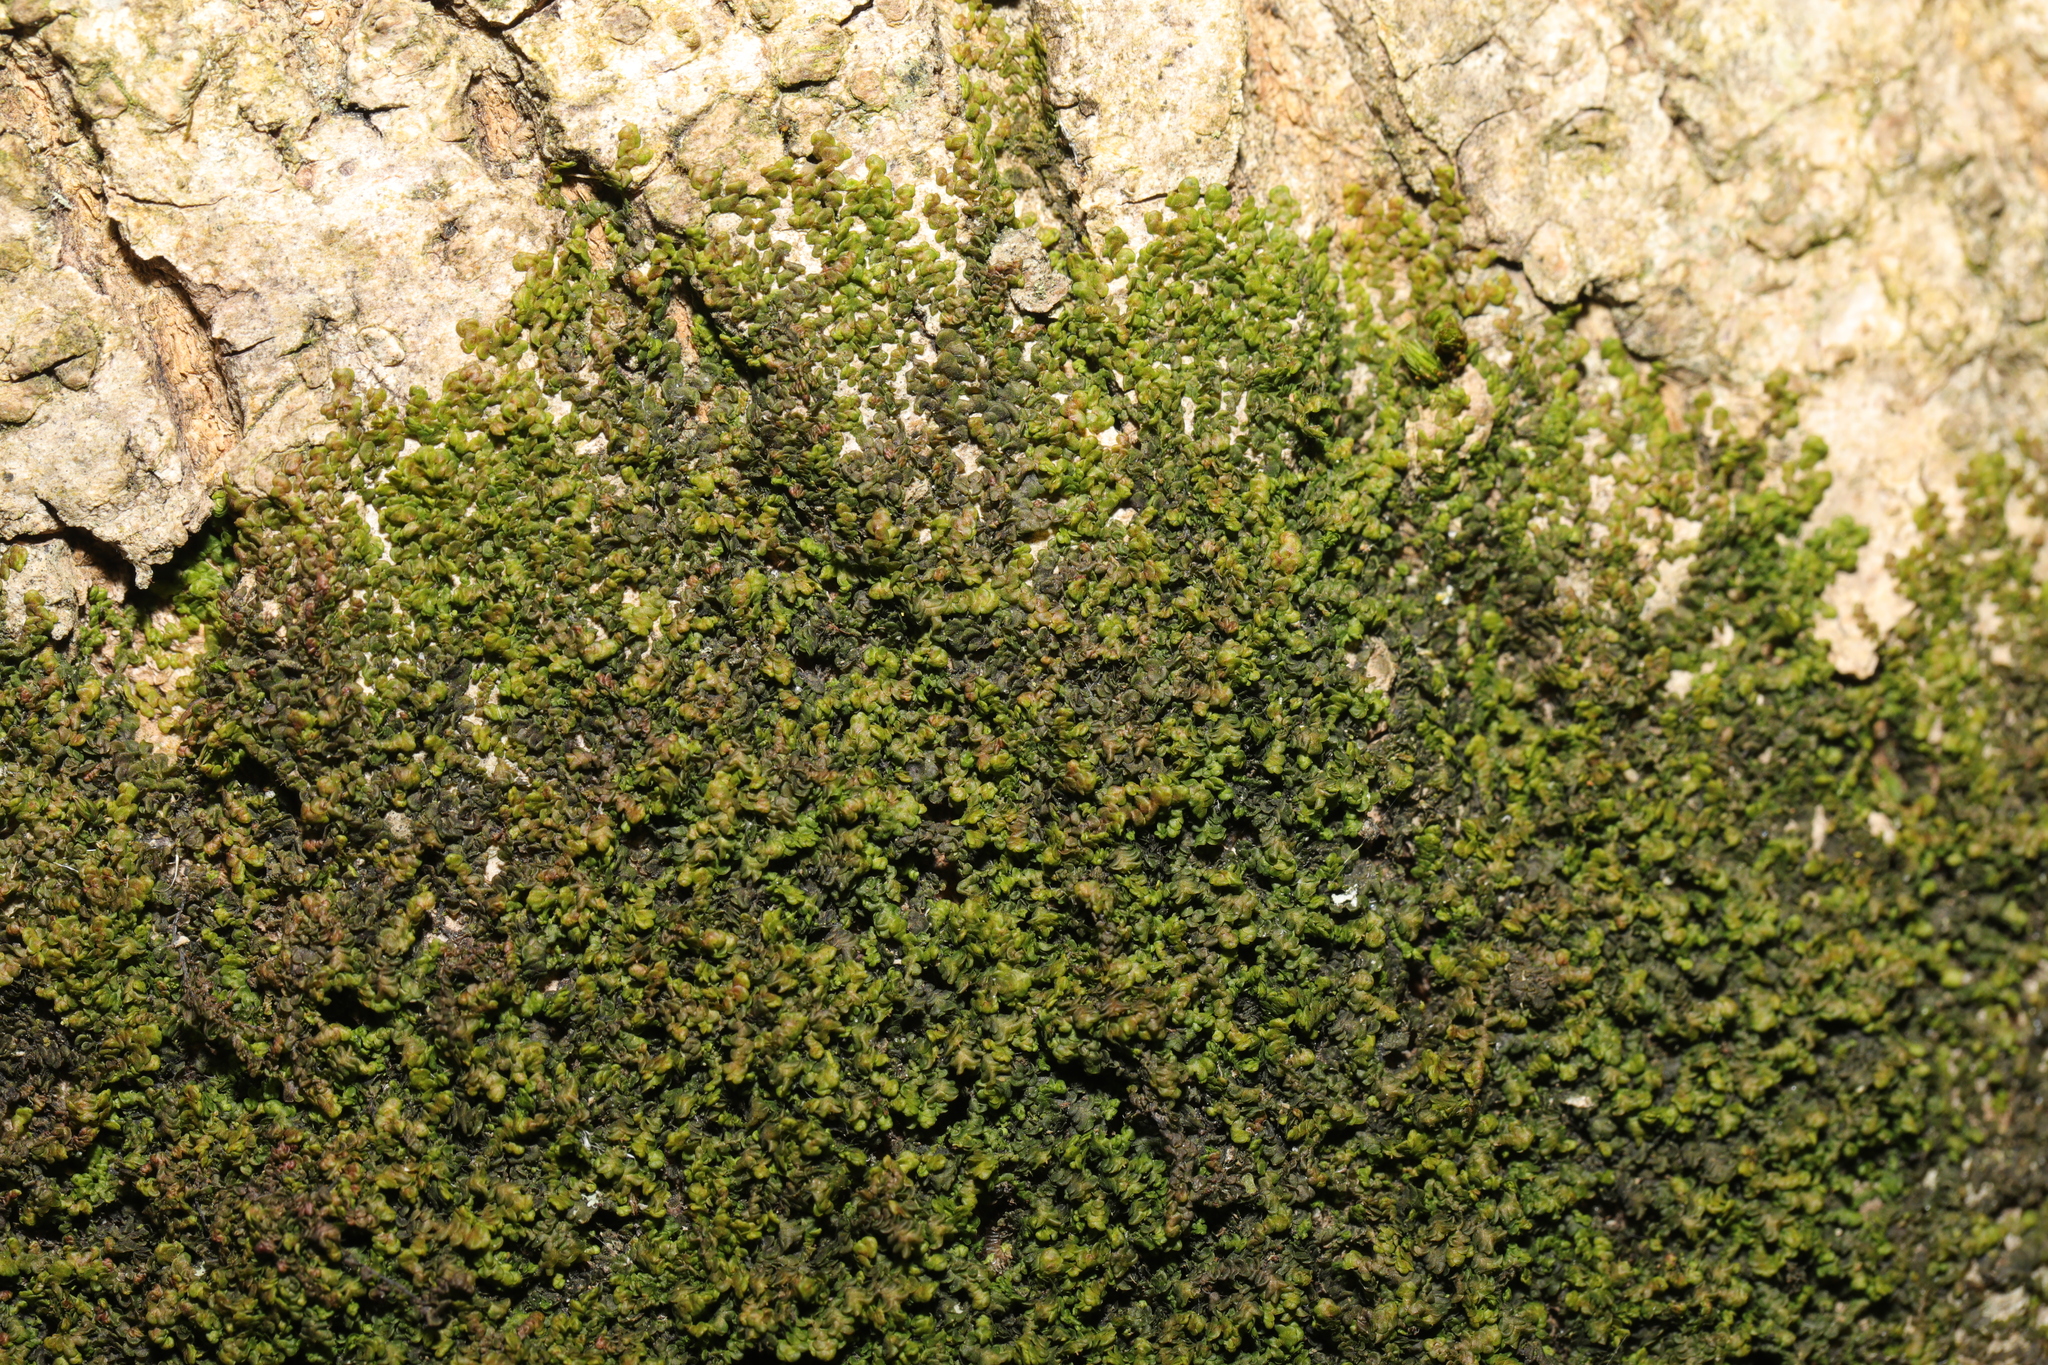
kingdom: Plantae
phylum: Marchantiophyta
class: Jungermanniopsida
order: Porellales
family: Frullaniaceae
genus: Frullania
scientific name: Frullania dilatata
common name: Dilated scalewort
